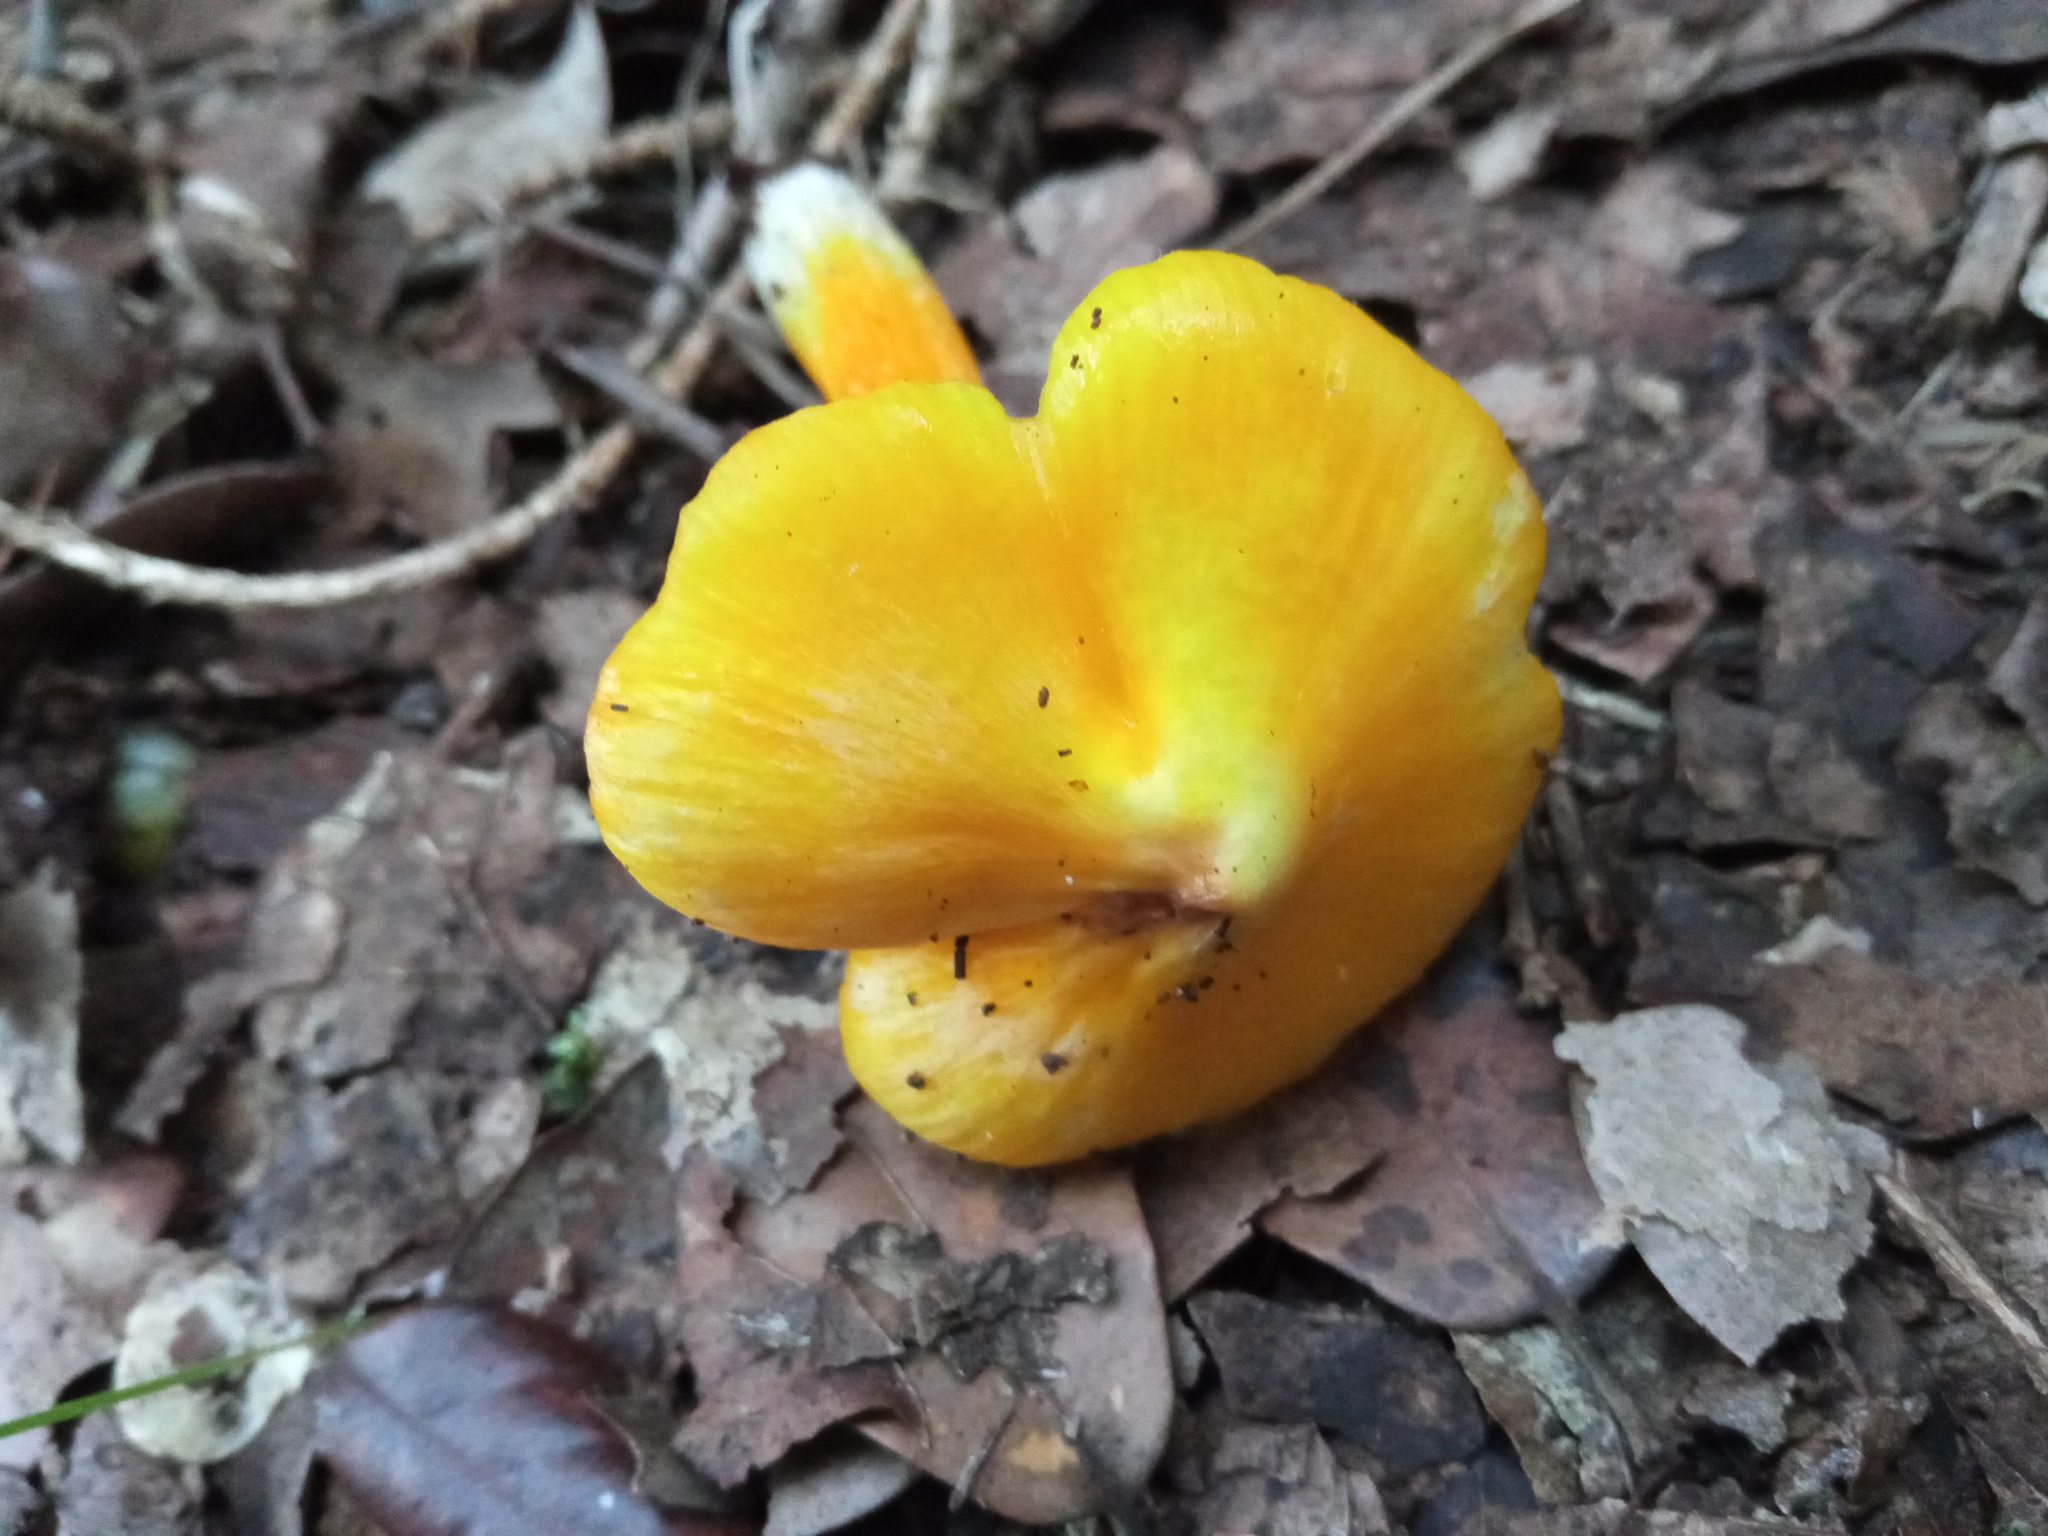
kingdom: Fungi
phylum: Basidiomycota
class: Agaricomycetes
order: Agaricales
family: Hygrophoraceae
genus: Hygrocybe
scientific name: Hygrocybe acutoconica
